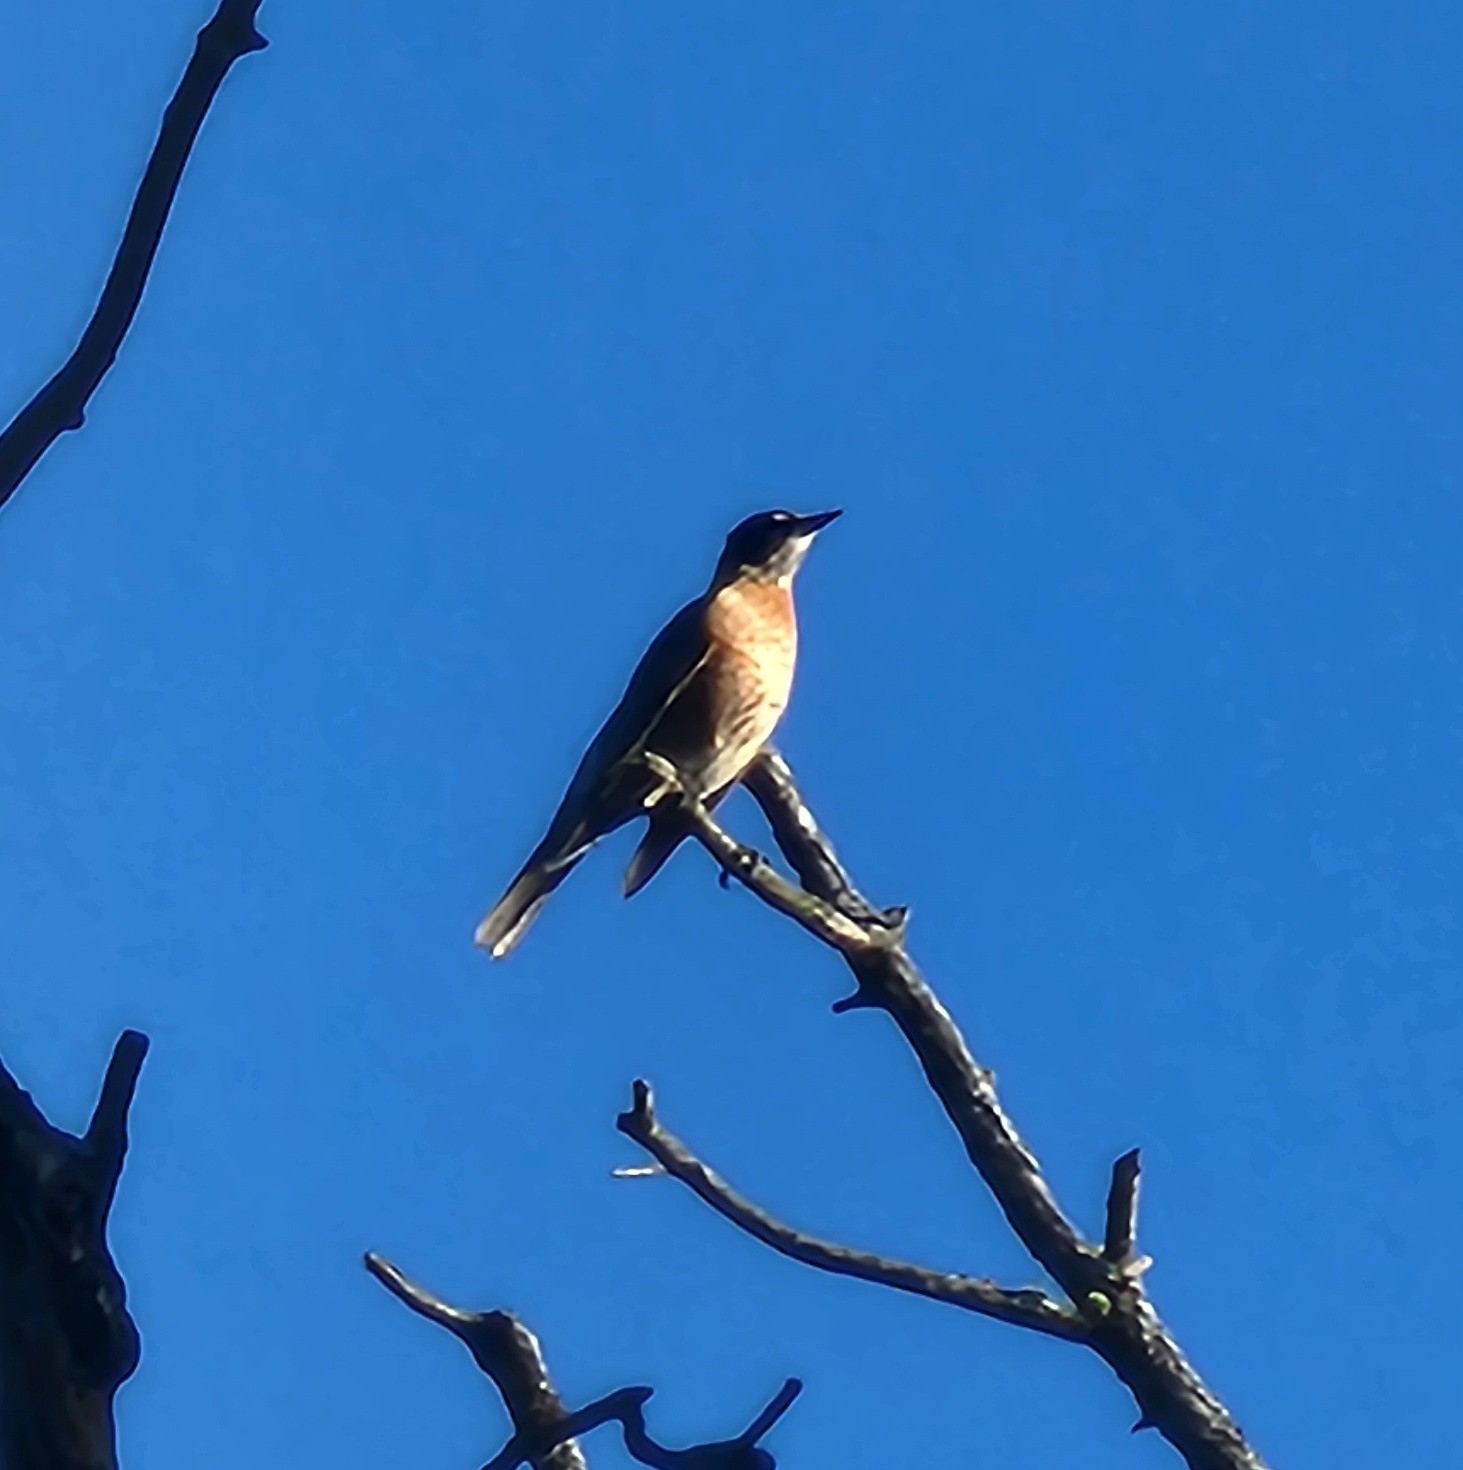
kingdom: Animalia
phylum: Chordata
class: Aves
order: Passeriformes
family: Turdidae
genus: Turdus
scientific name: Turdus migratorius
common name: American robin
